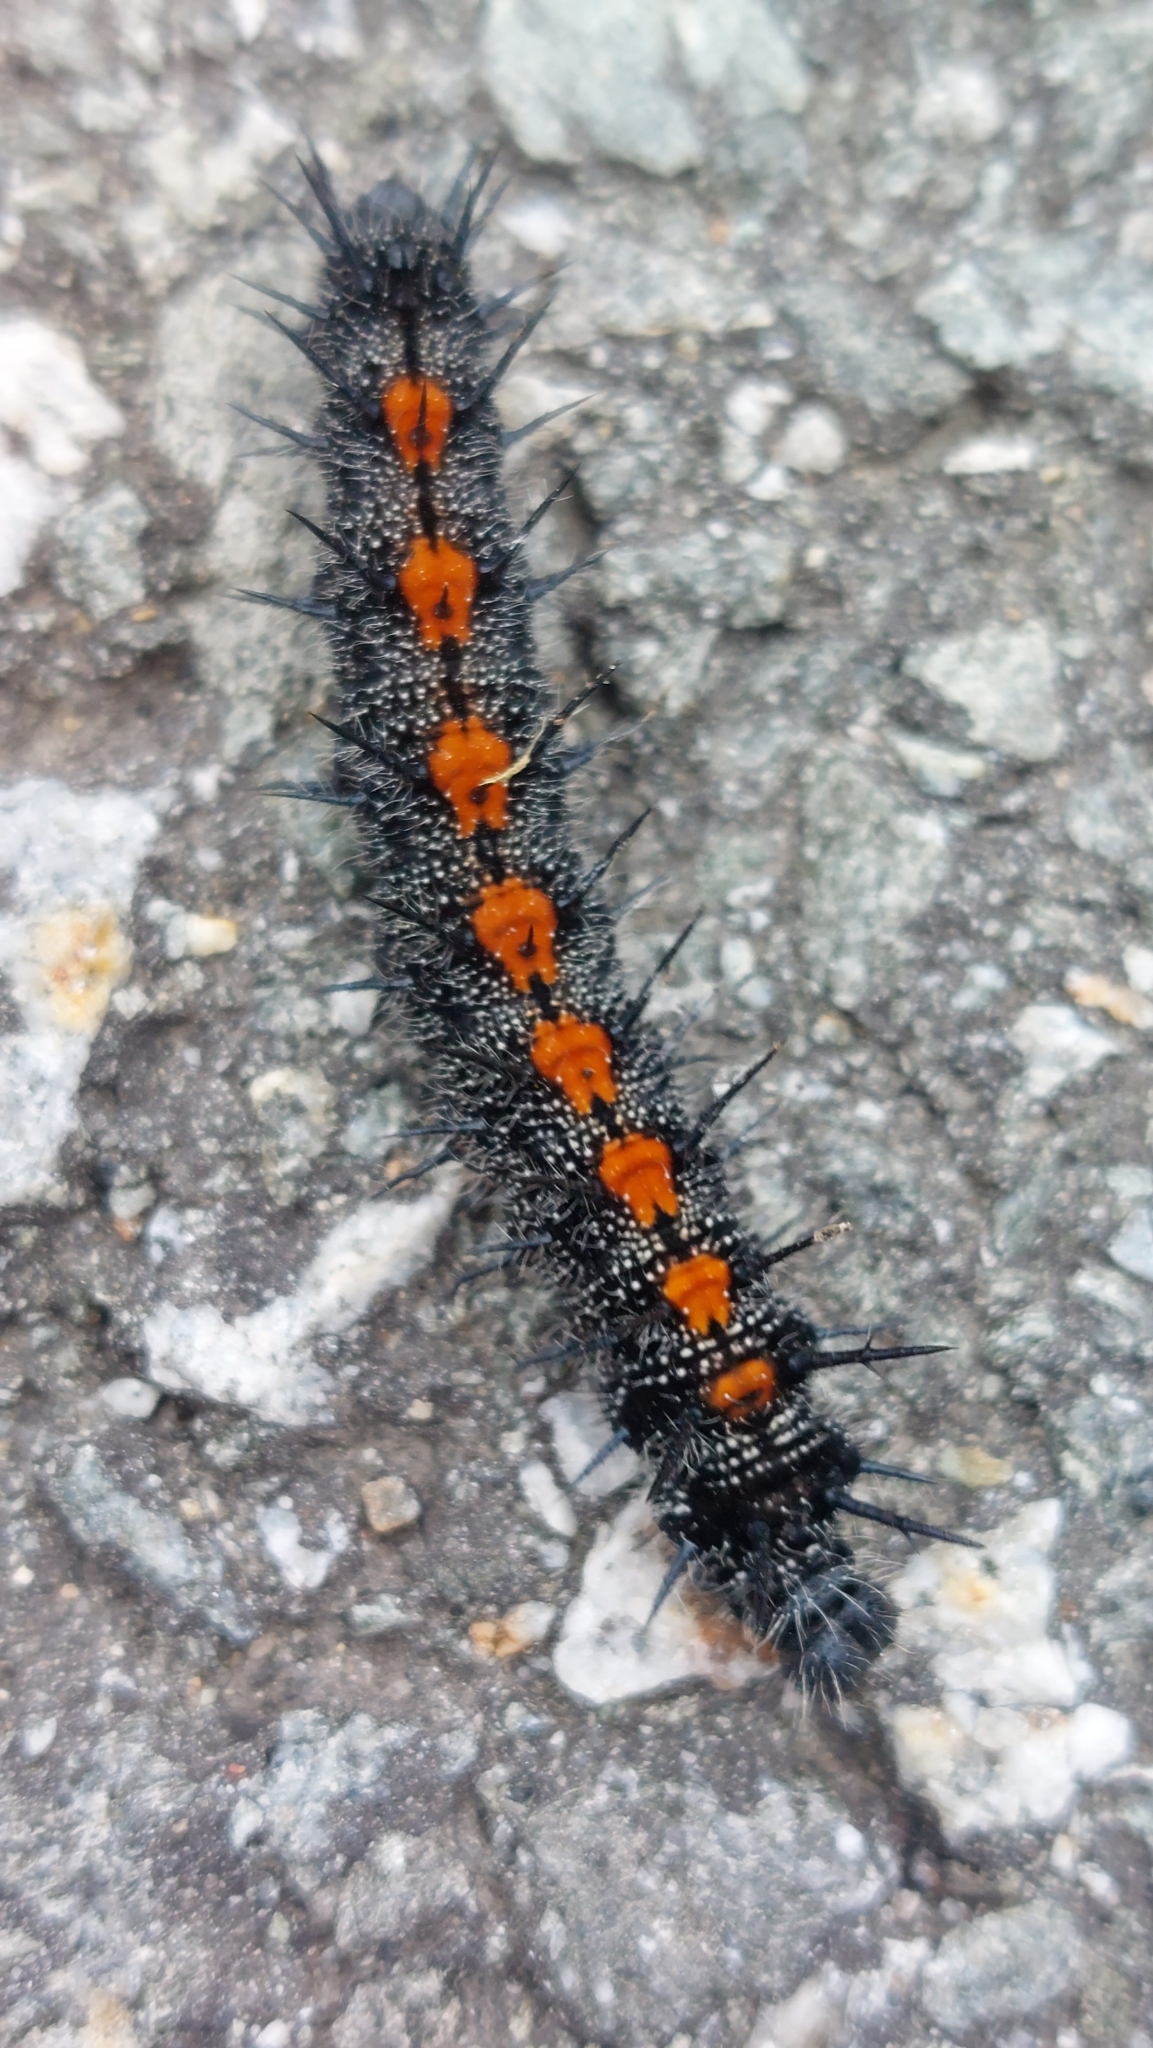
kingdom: Animalia
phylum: Arthropoda
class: Insecta
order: Lepidoptera
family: Nymphalidae
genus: Nymphalis
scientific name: Nymphalis antiopa
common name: Camberwell beauty
